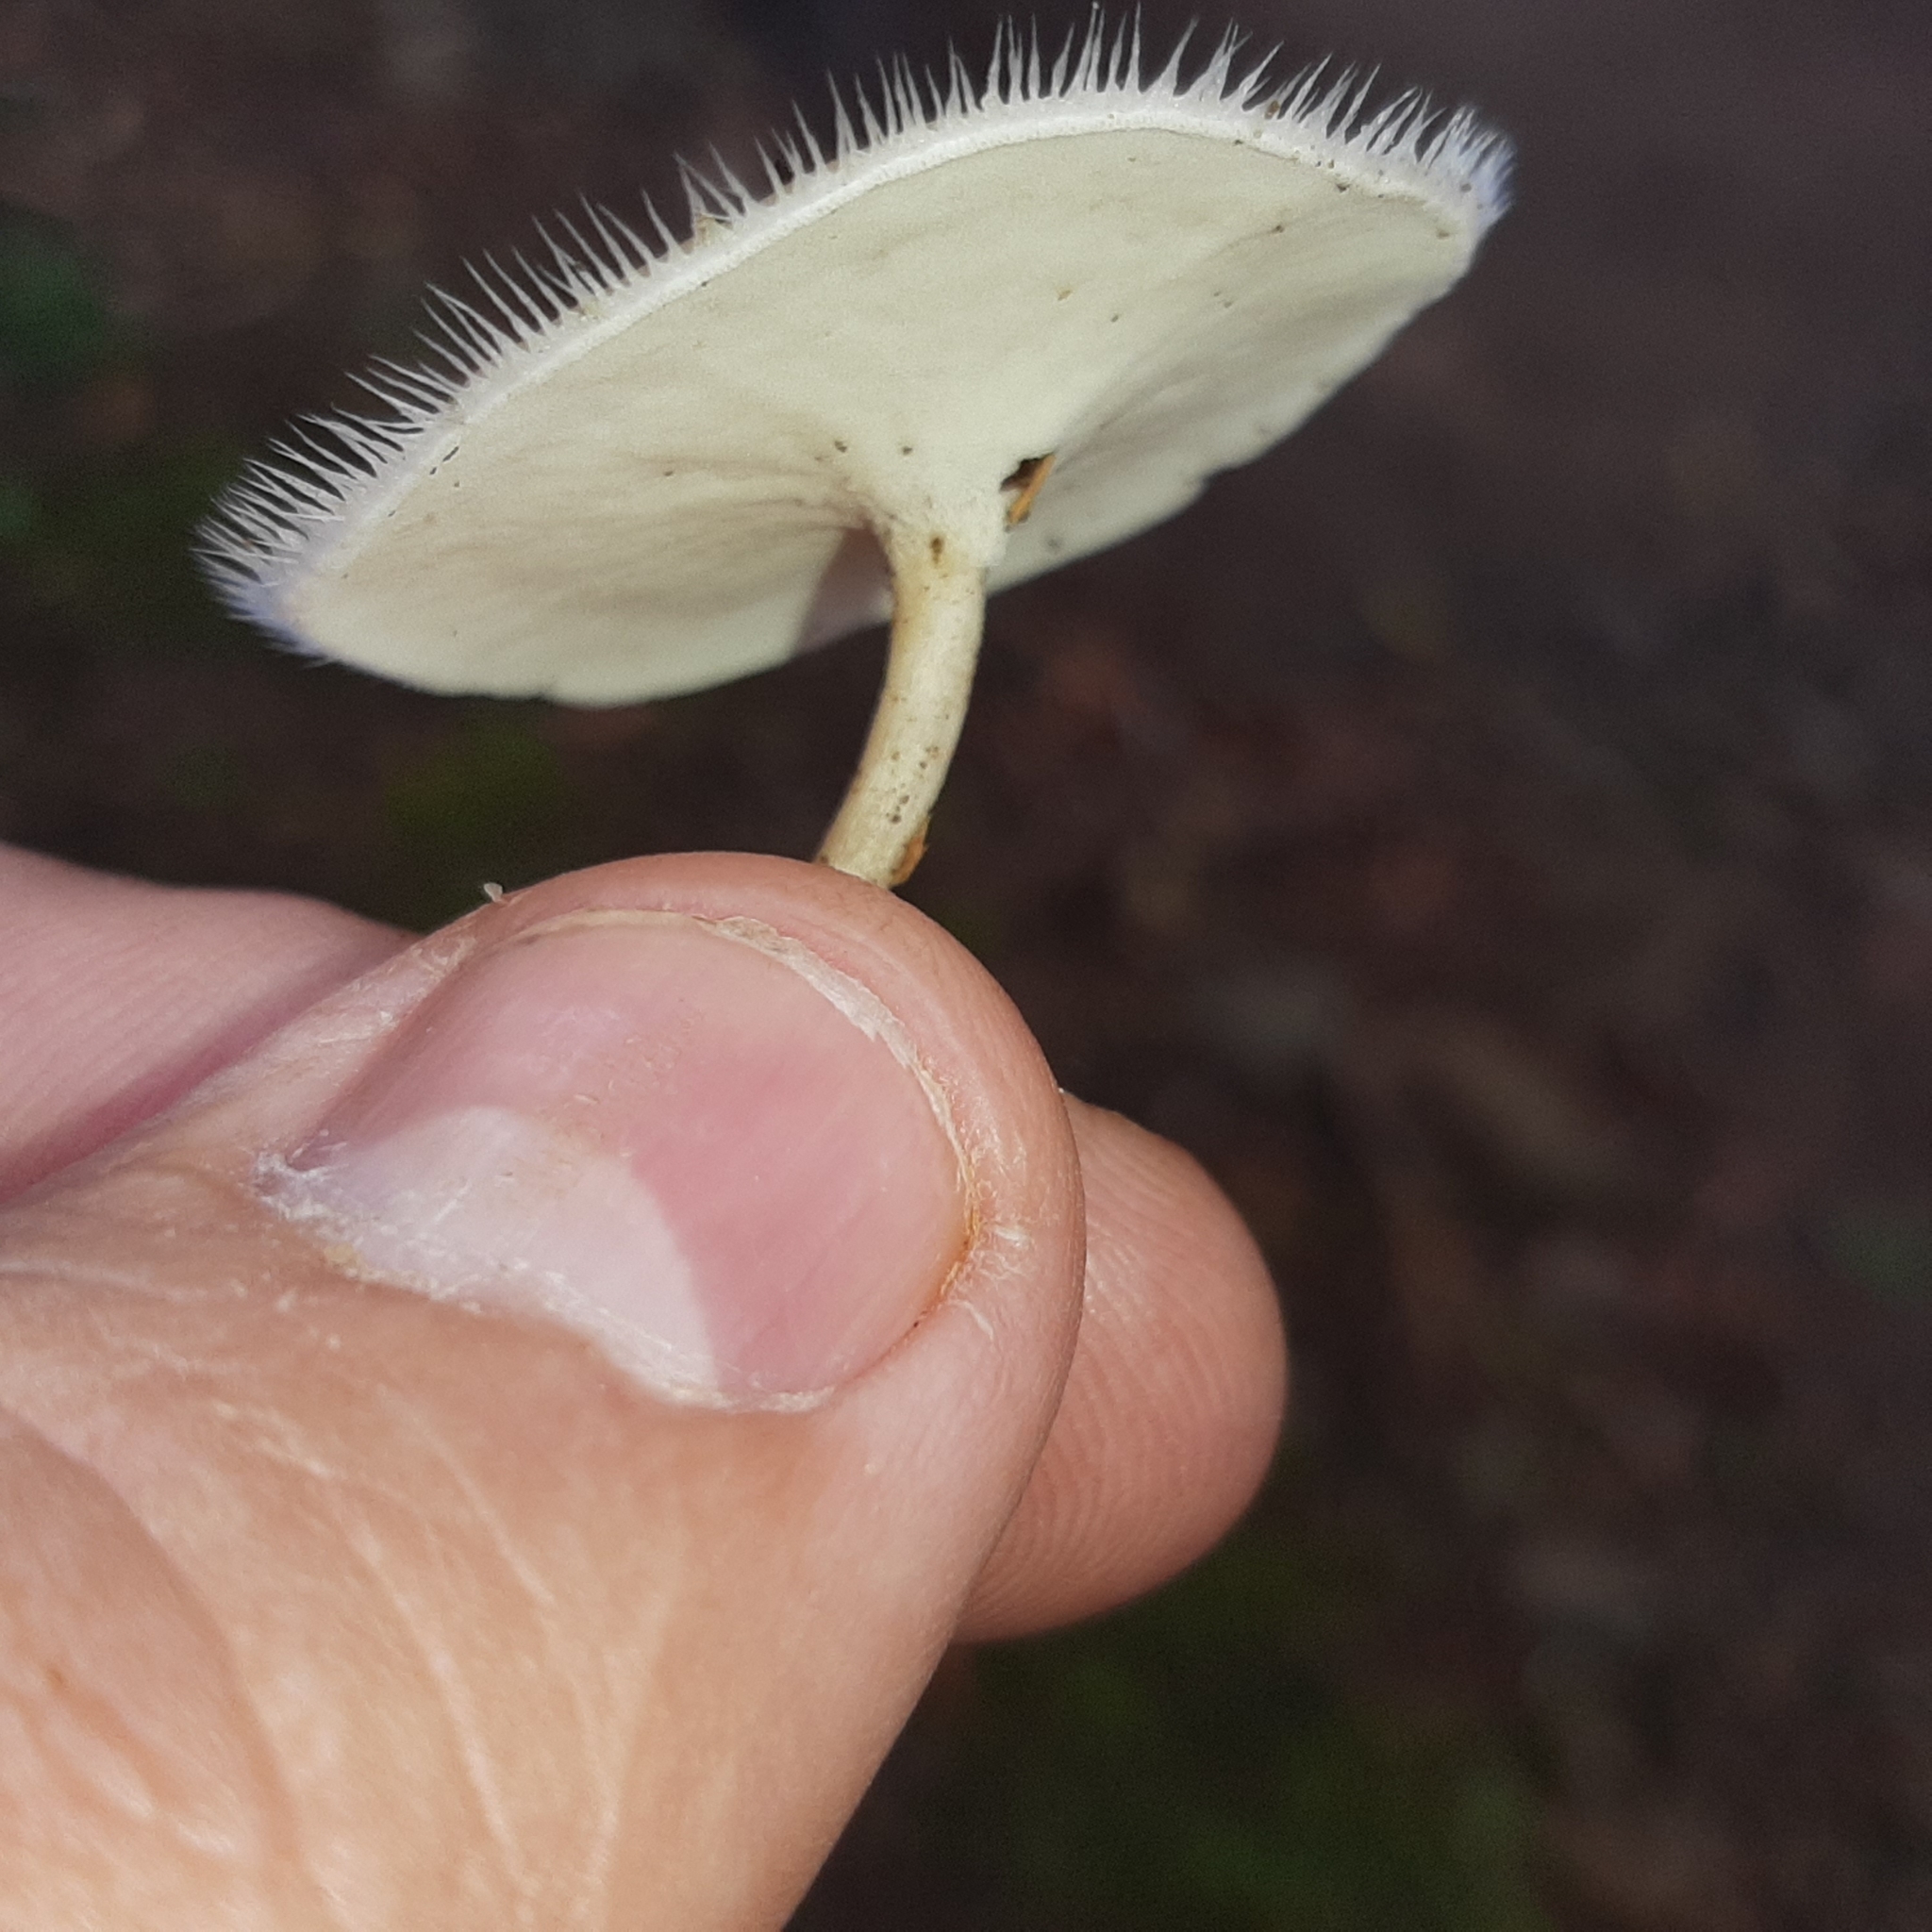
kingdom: Fungi
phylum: Basidiomycota
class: Agaricomycetes
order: Polyporales
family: Polyporaceae
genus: Lentinus
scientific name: Lentinus flexipes
